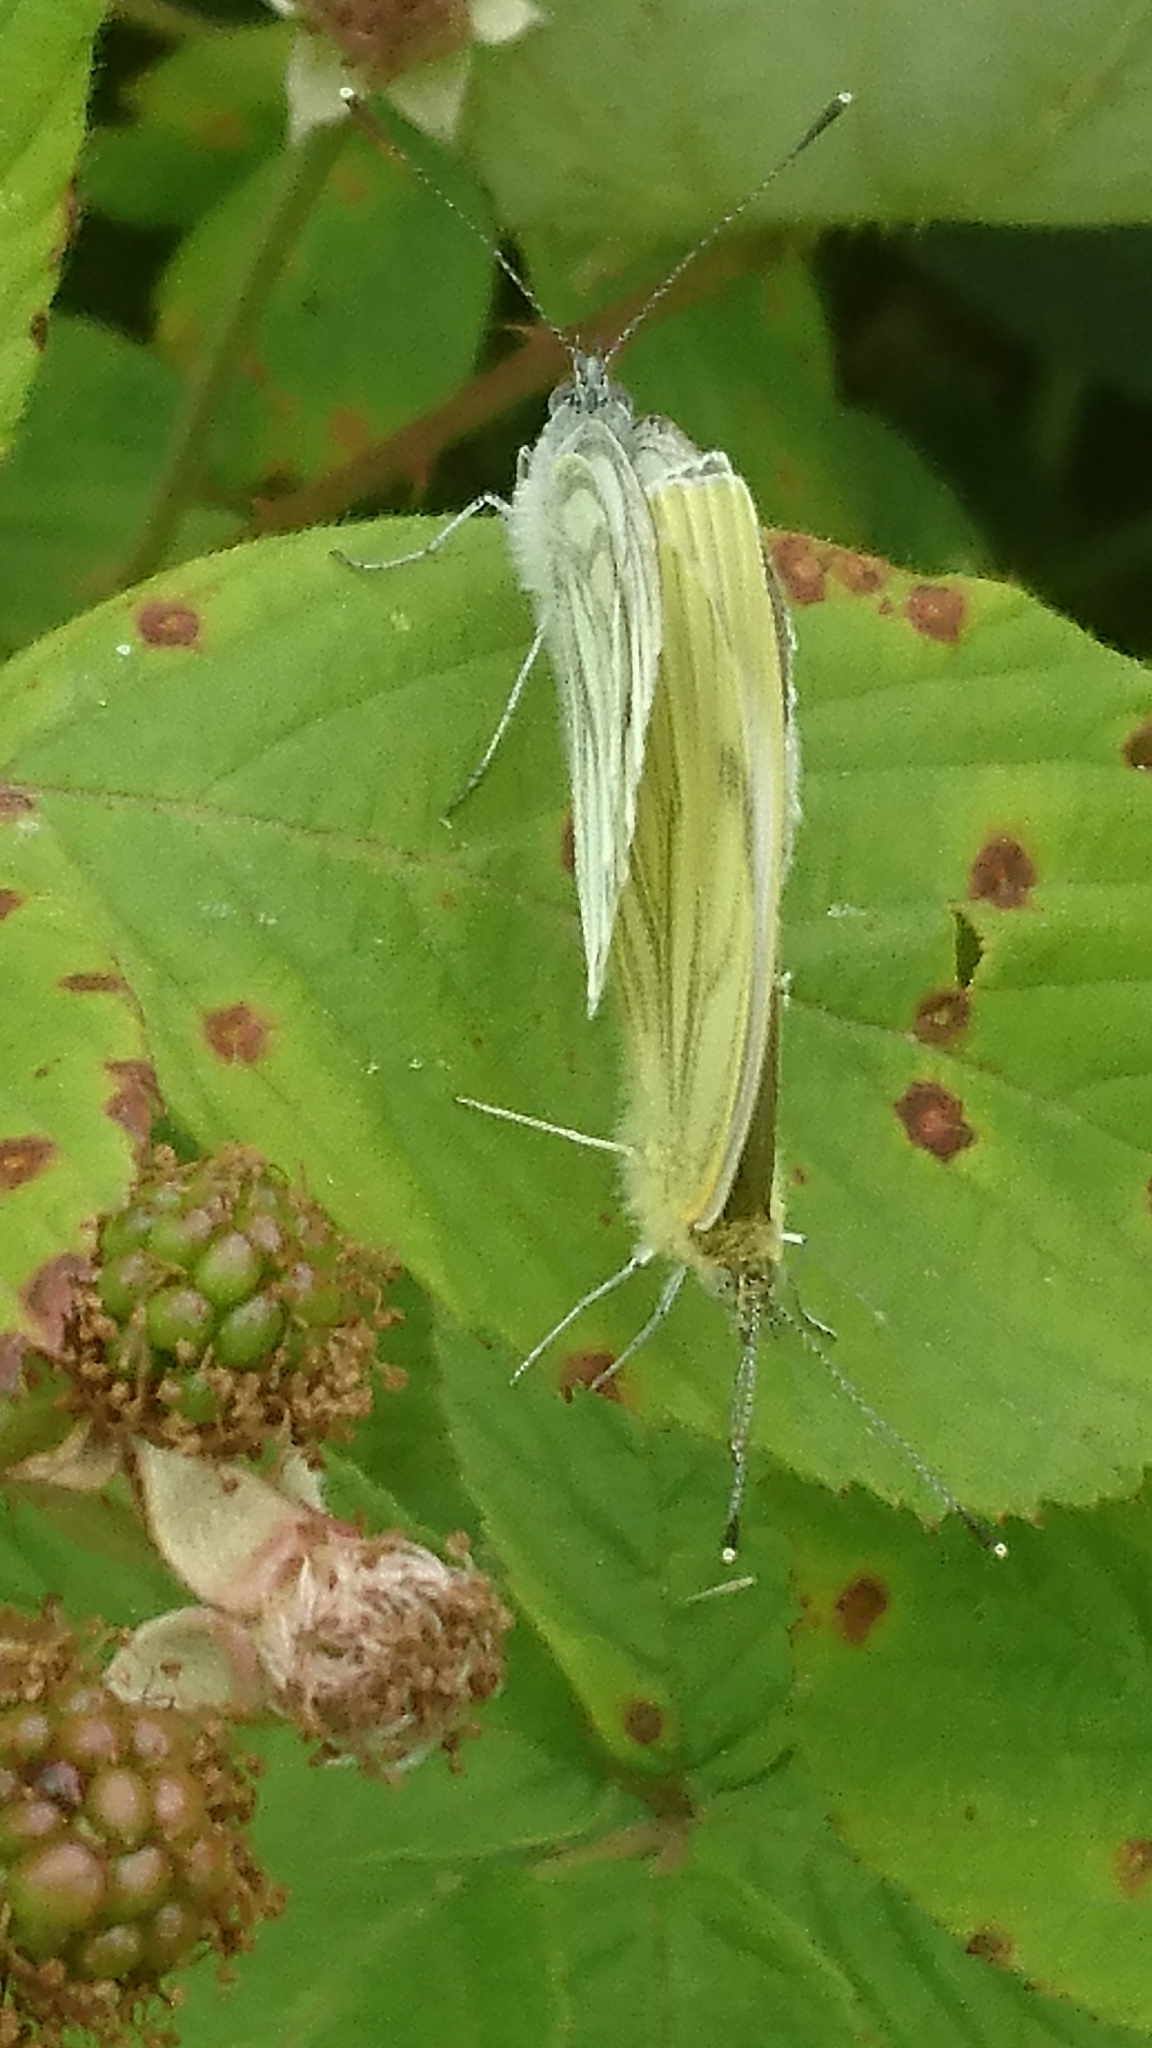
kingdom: Animalia
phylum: Arthropoda
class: Insecta
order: Lepidoptera
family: Pieridae
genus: Pieris
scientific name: Pieris napi
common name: Green-veined white
